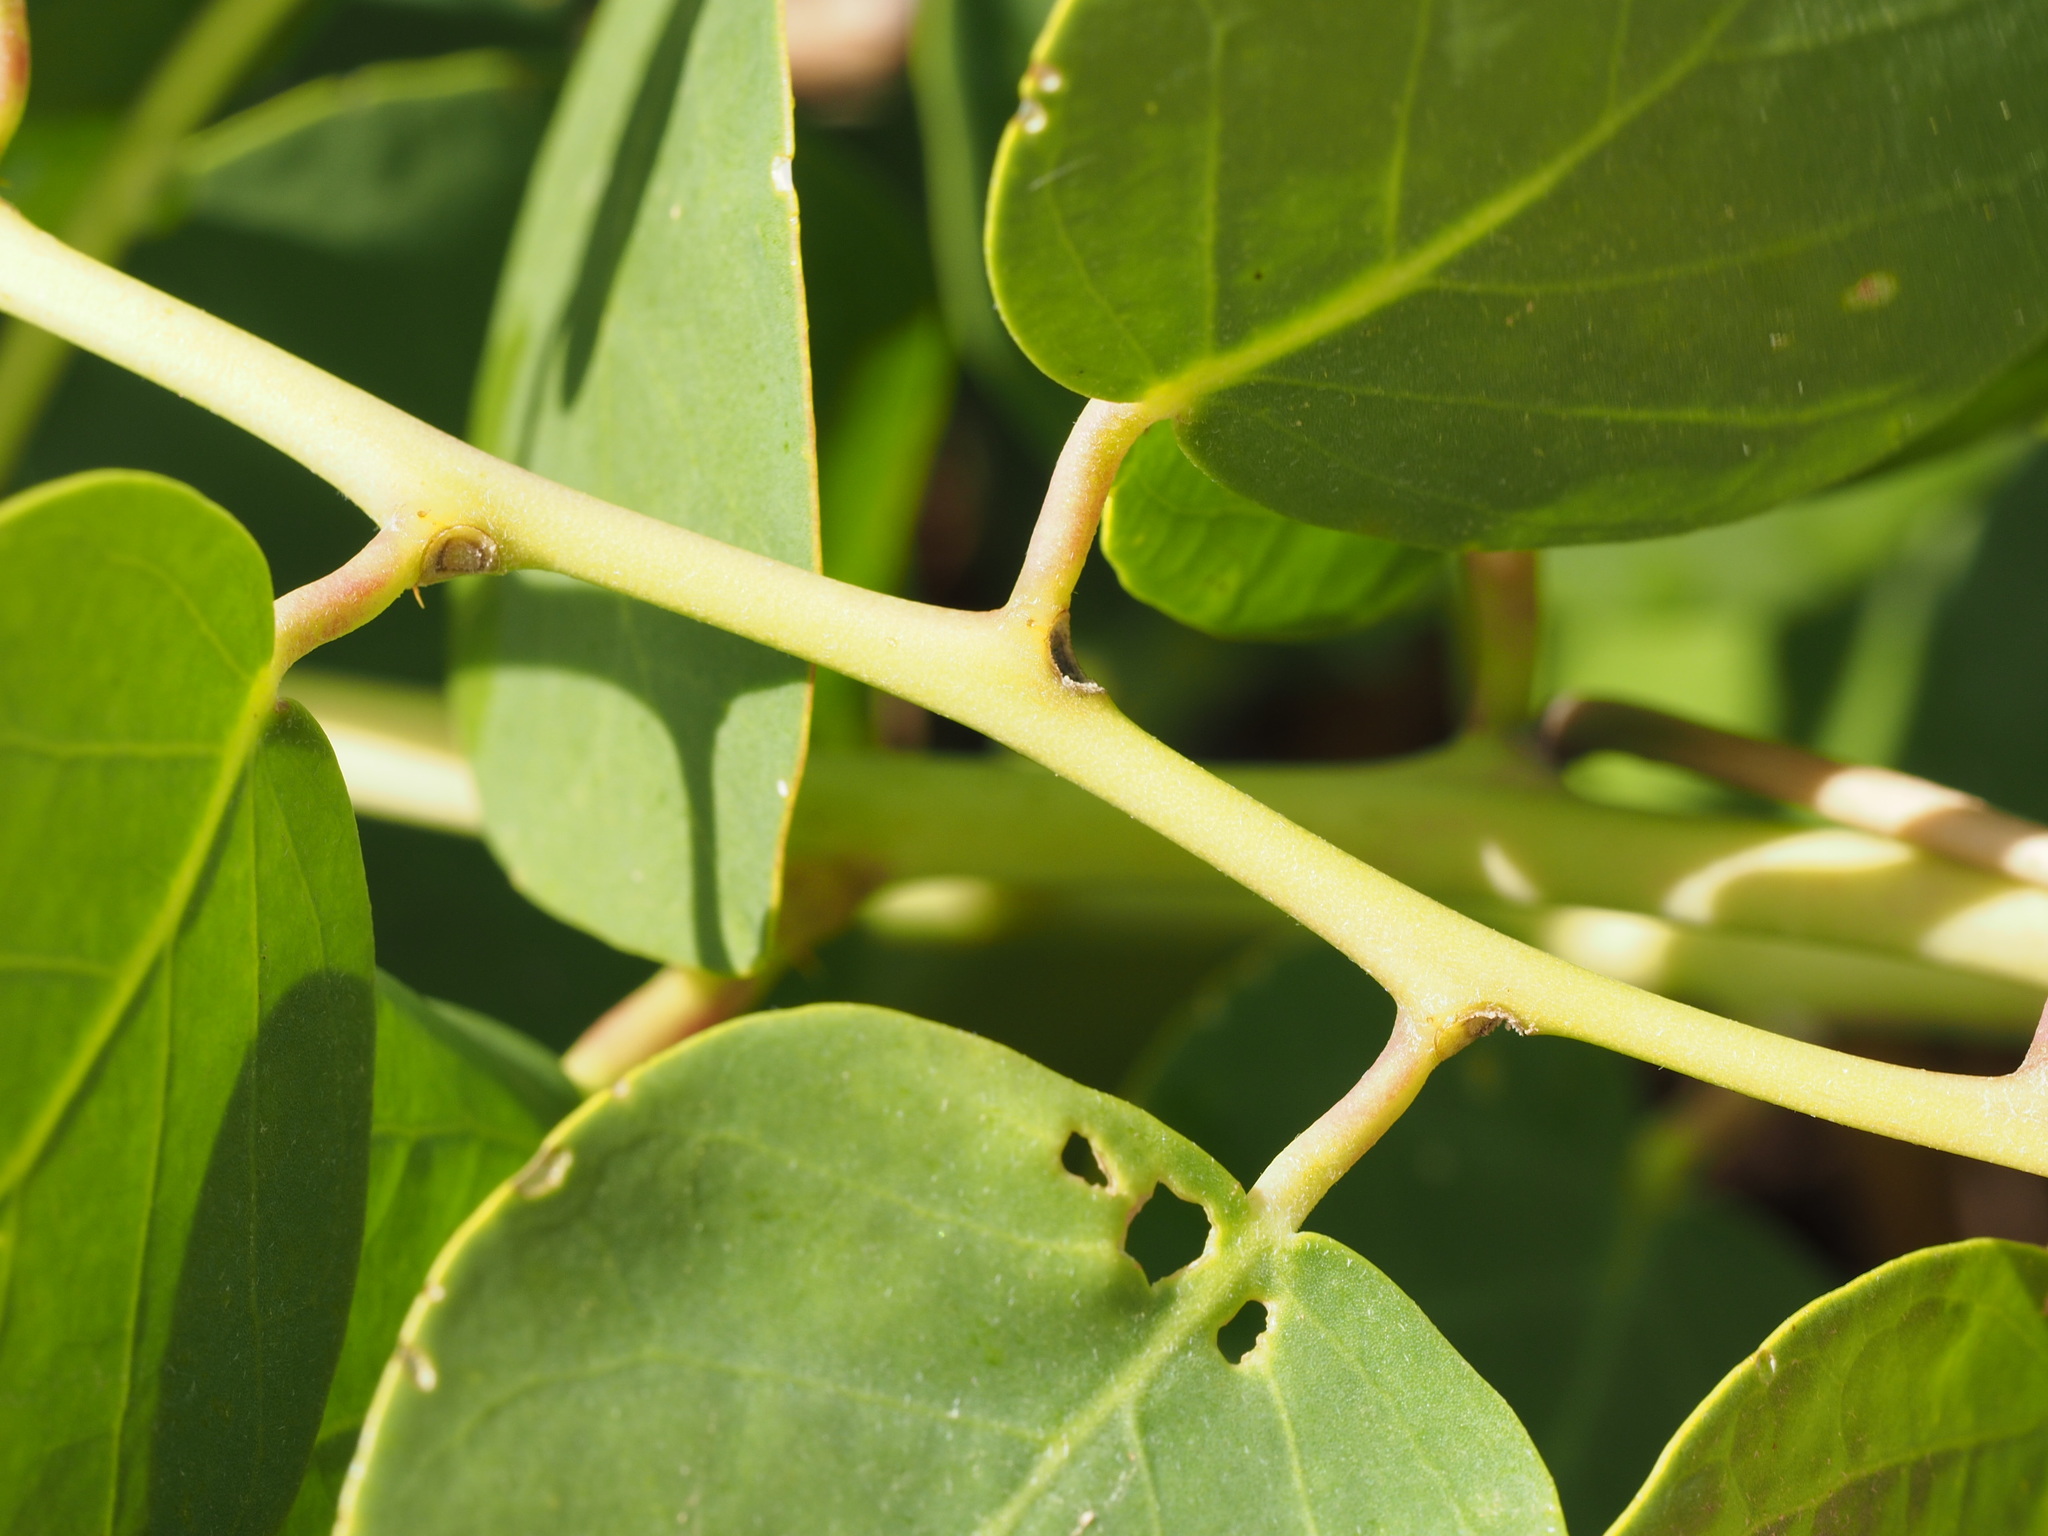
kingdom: Plantae
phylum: Tracheophyta
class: Magnoliopsida
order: Brassicales
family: Capparaceae
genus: Capparis
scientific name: Capparis spinosa
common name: Caper
